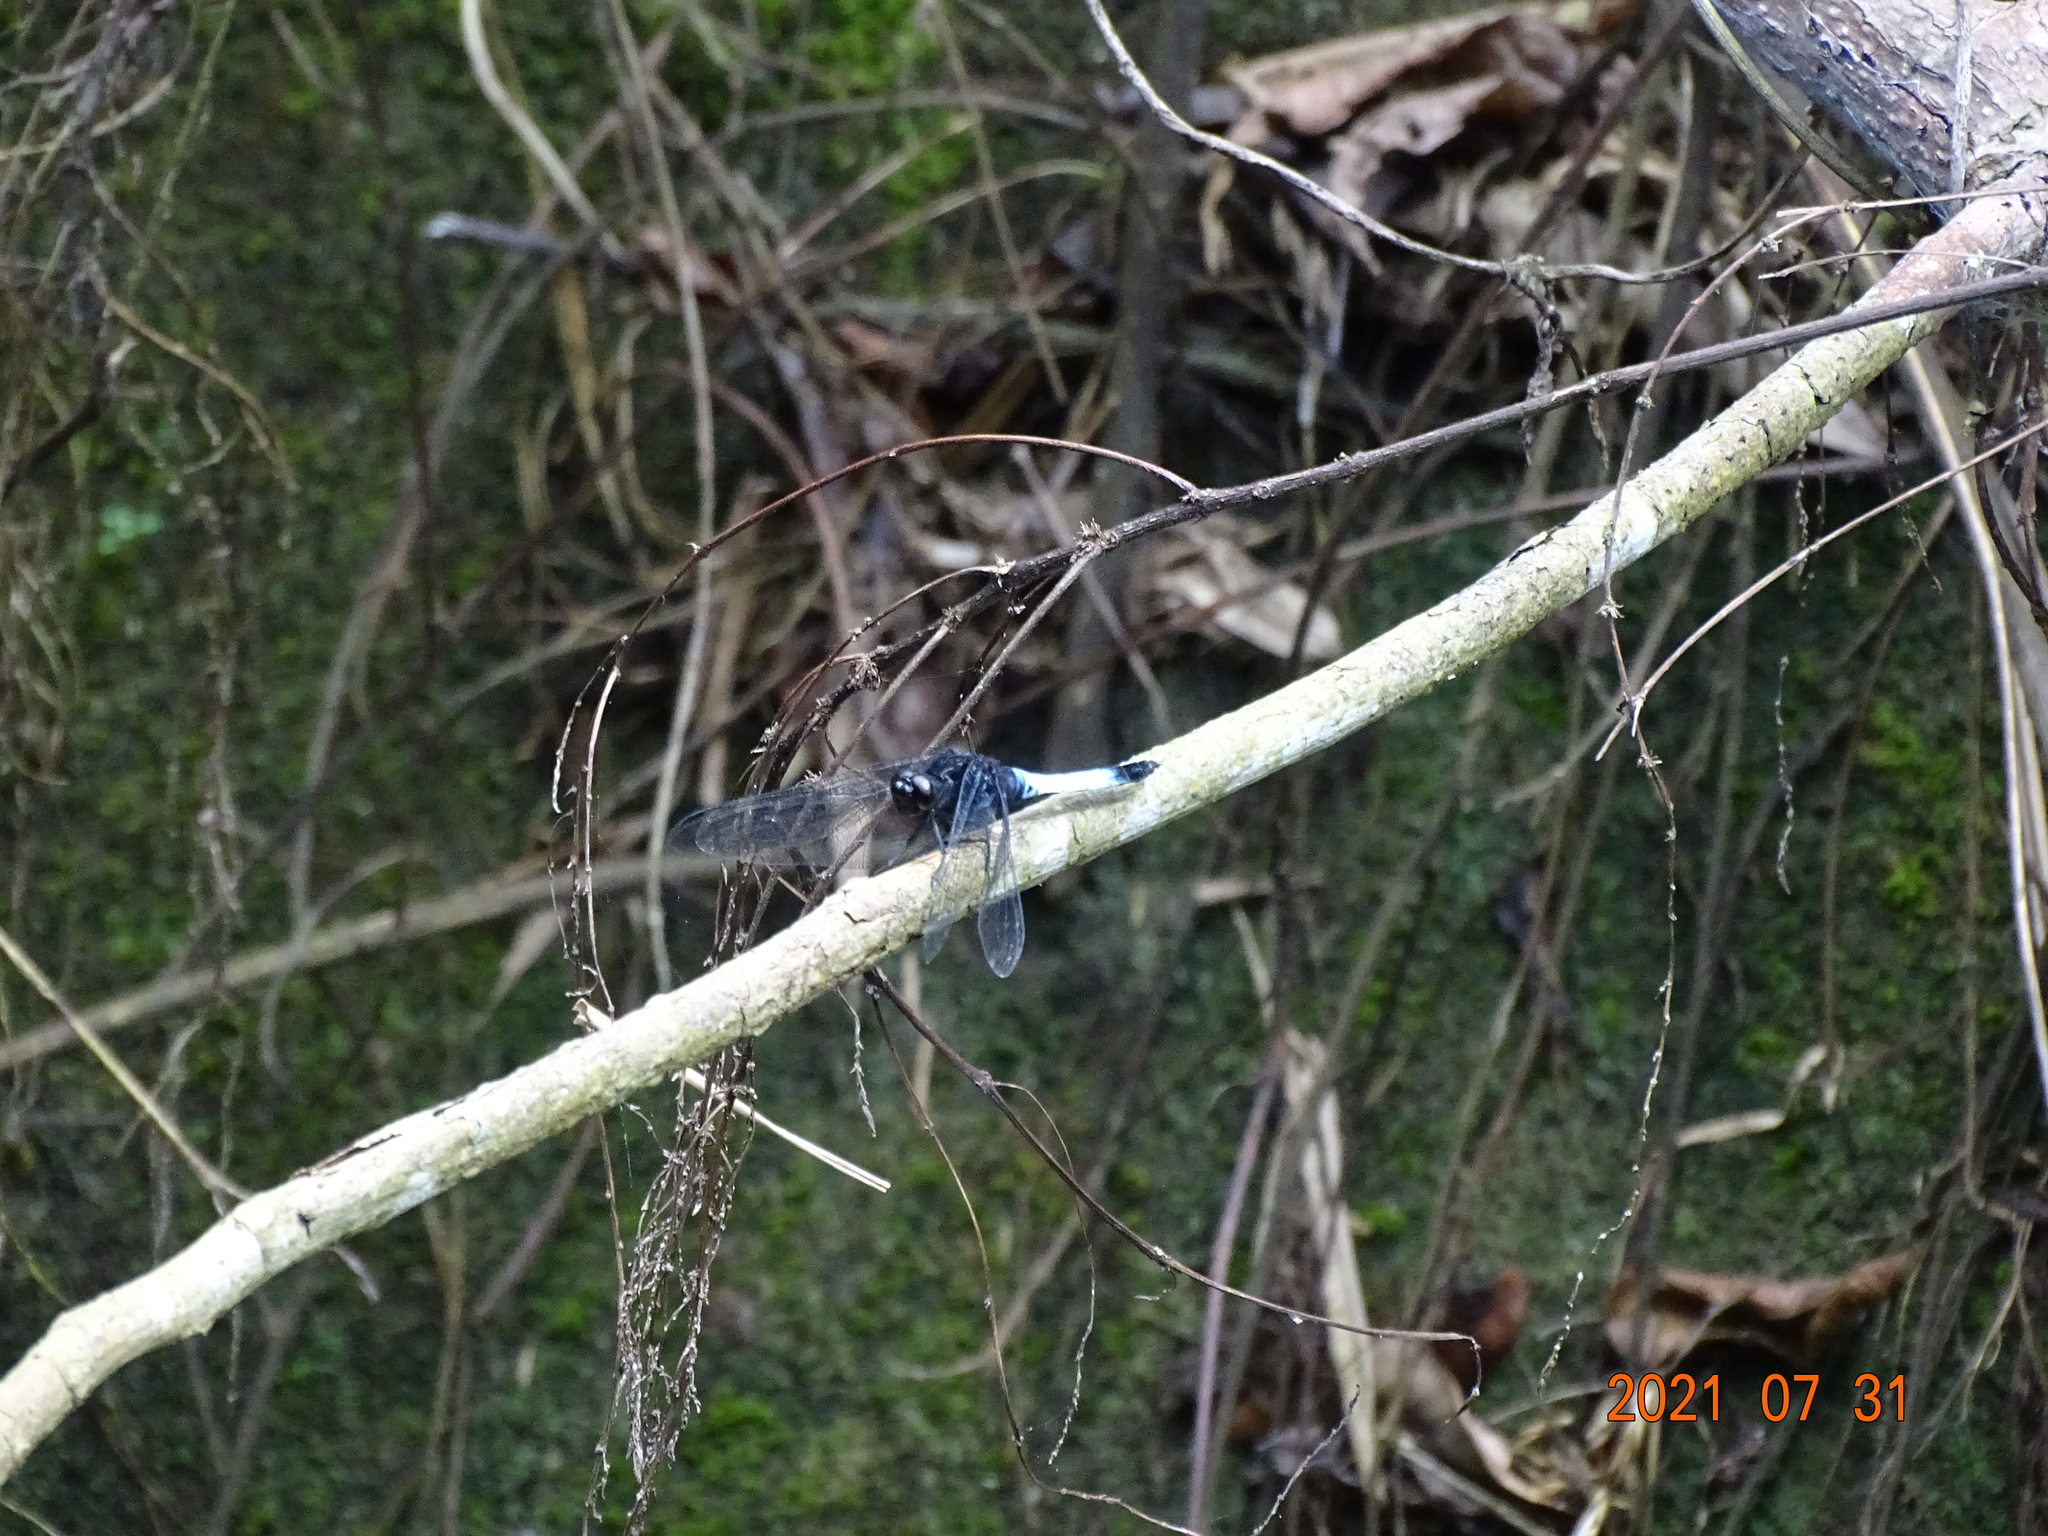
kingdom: Animalia
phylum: Arthropoda
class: Insecta
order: Odonata
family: Libellulidae
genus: Orthetrum
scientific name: Orthetrum triangulare
